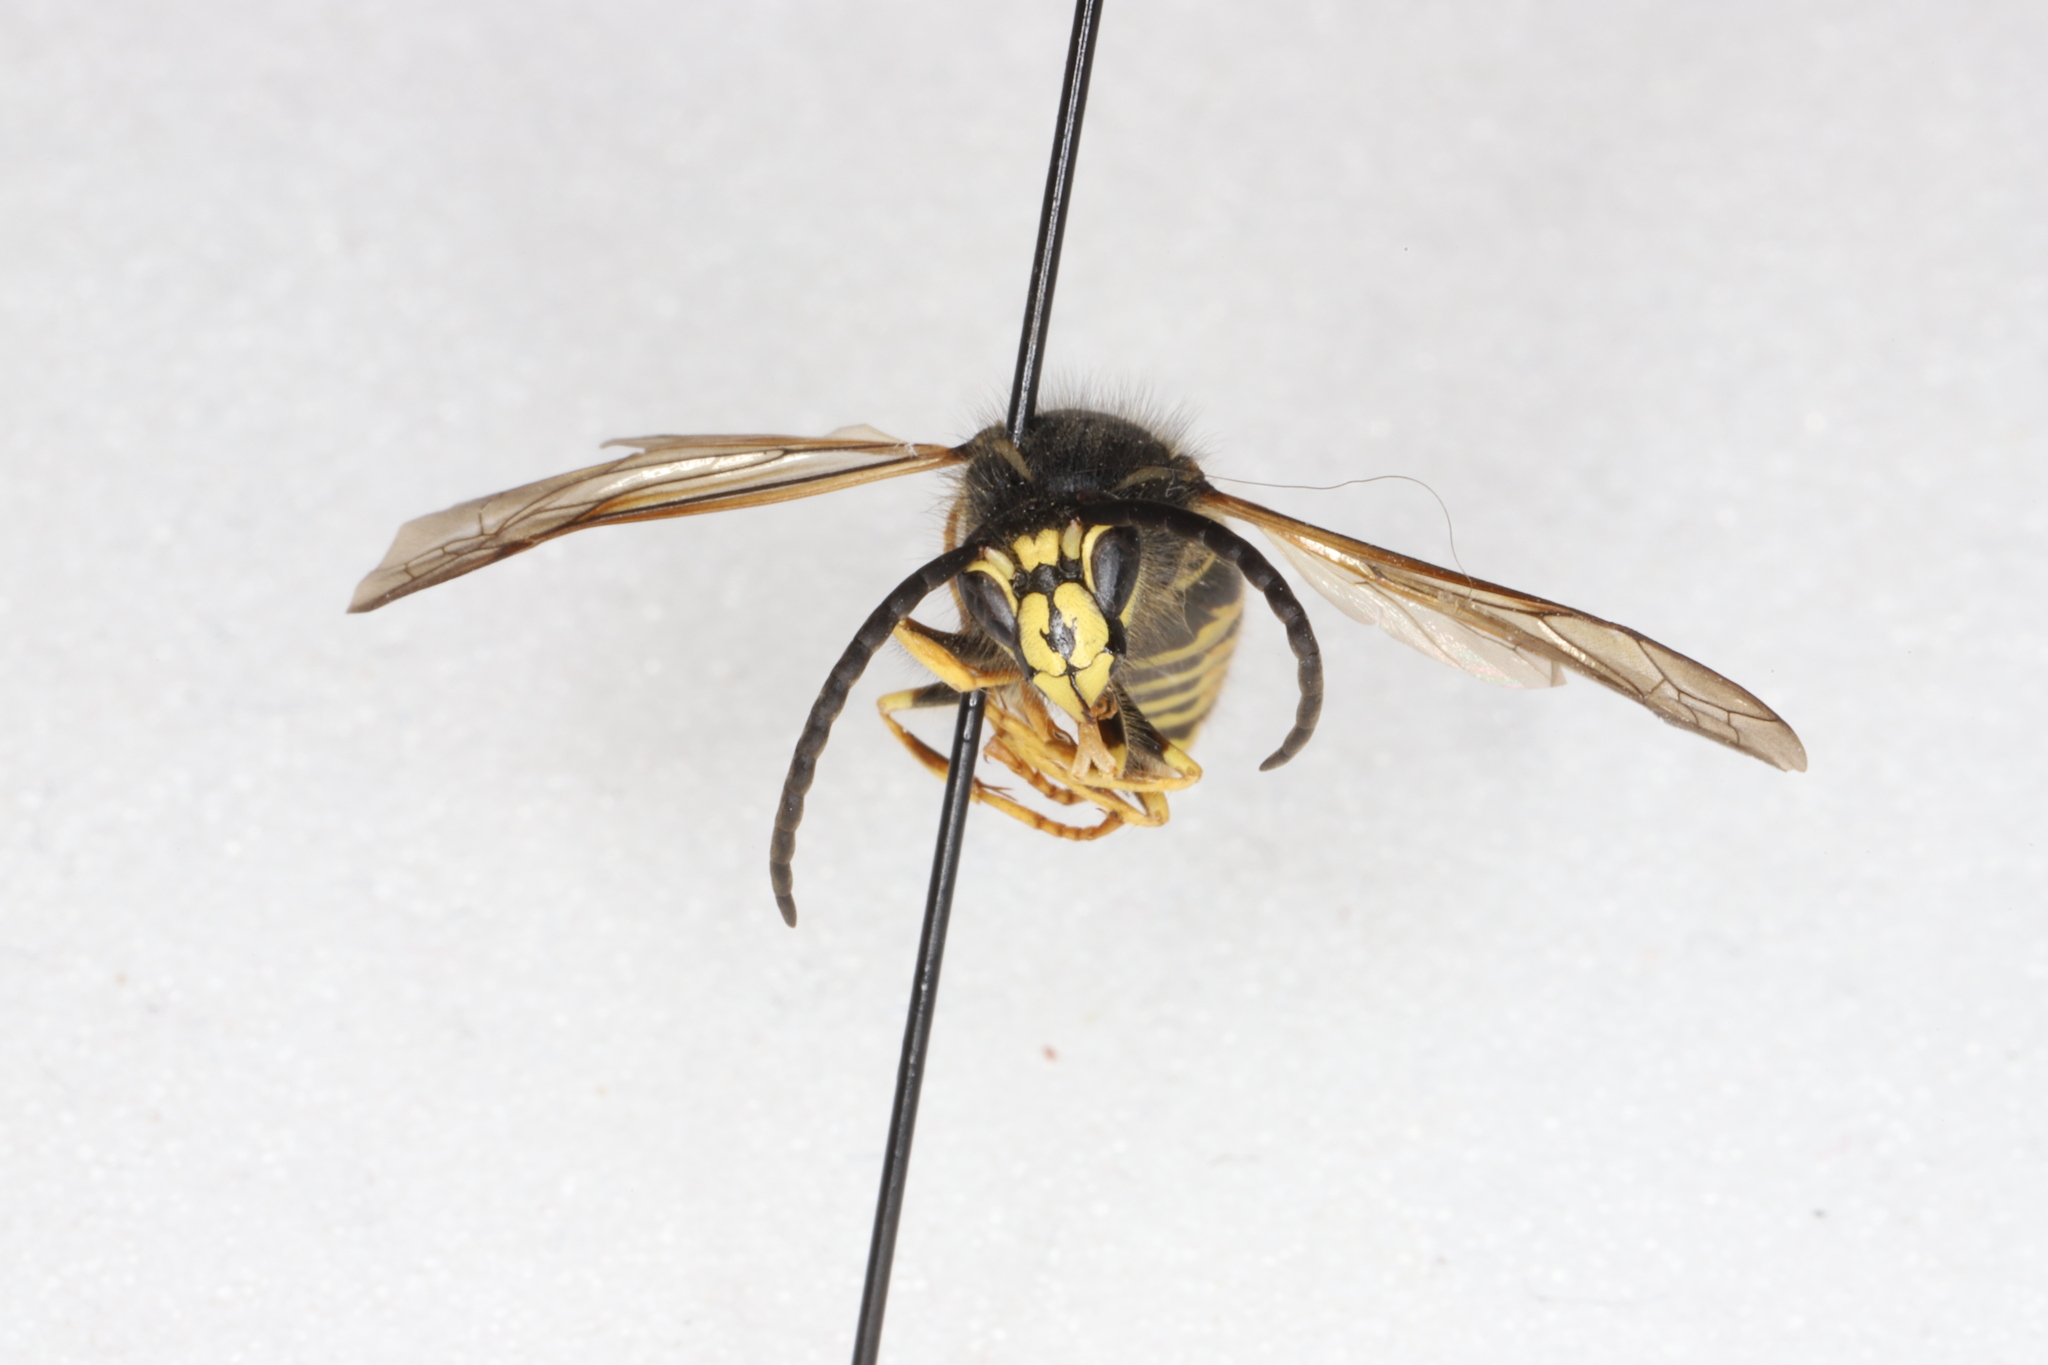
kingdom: Animalia
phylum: Arthropoda
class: Insecta
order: Hymenoptera
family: Vespidae
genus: Dolichovespula
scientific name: Dolichovespula norvegicoides
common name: Northern aerial yellowjacket
